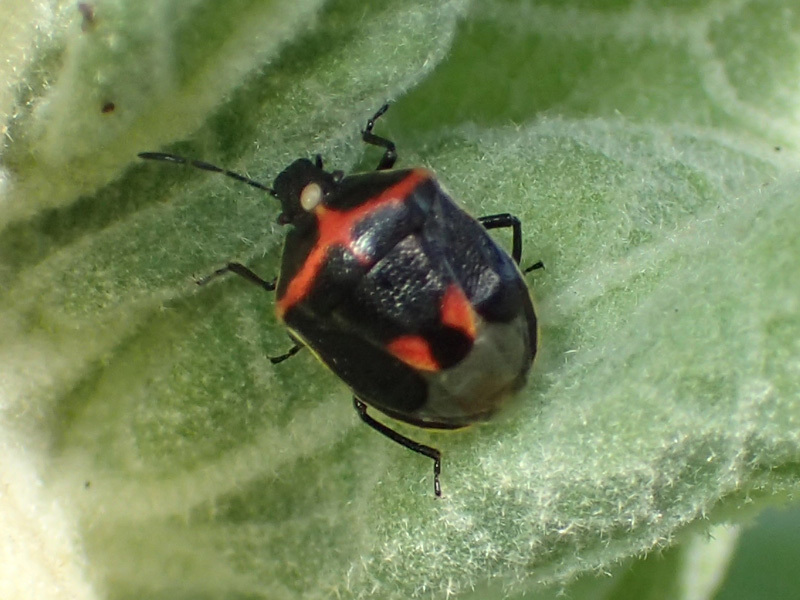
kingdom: Animalia
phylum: Arthropoda
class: Insecta
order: Hemiptera
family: Pentatomidae
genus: Cosmopepla
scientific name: Cosmopepla lintneriana
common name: Twice-stabbed stink bug
